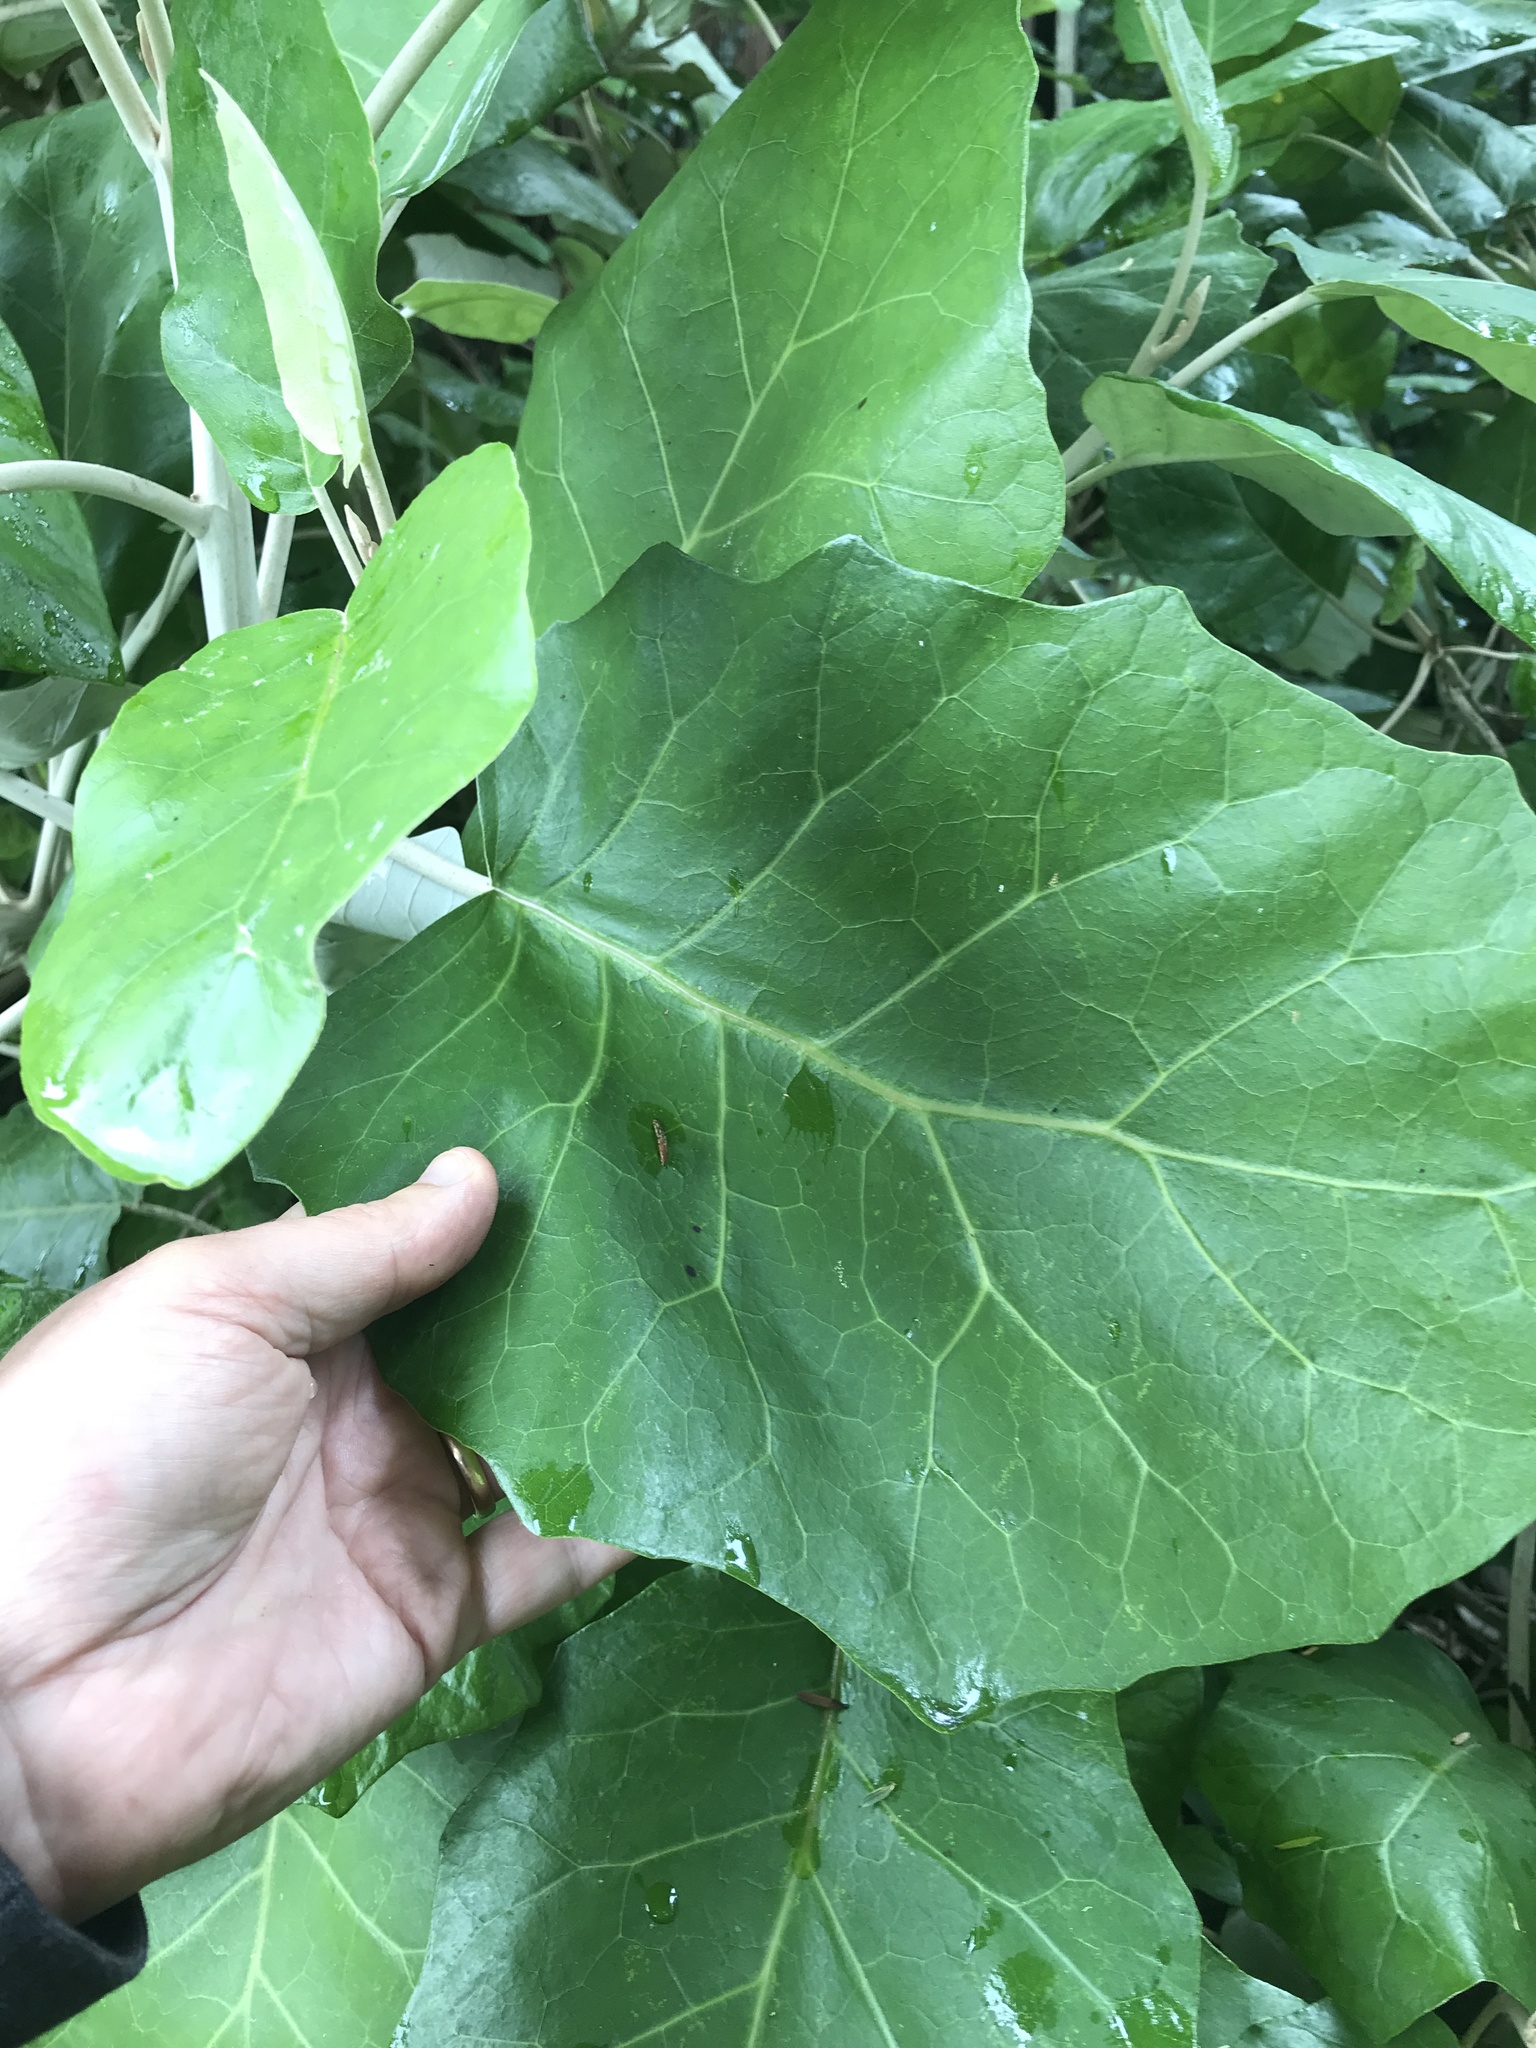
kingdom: Plantae
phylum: Tracheophyta
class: Magnoliopsida
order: Asterales
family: Asteraceae
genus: Brachyglottis
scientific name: Brachyglottis repanda
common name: Hedge ragwort
